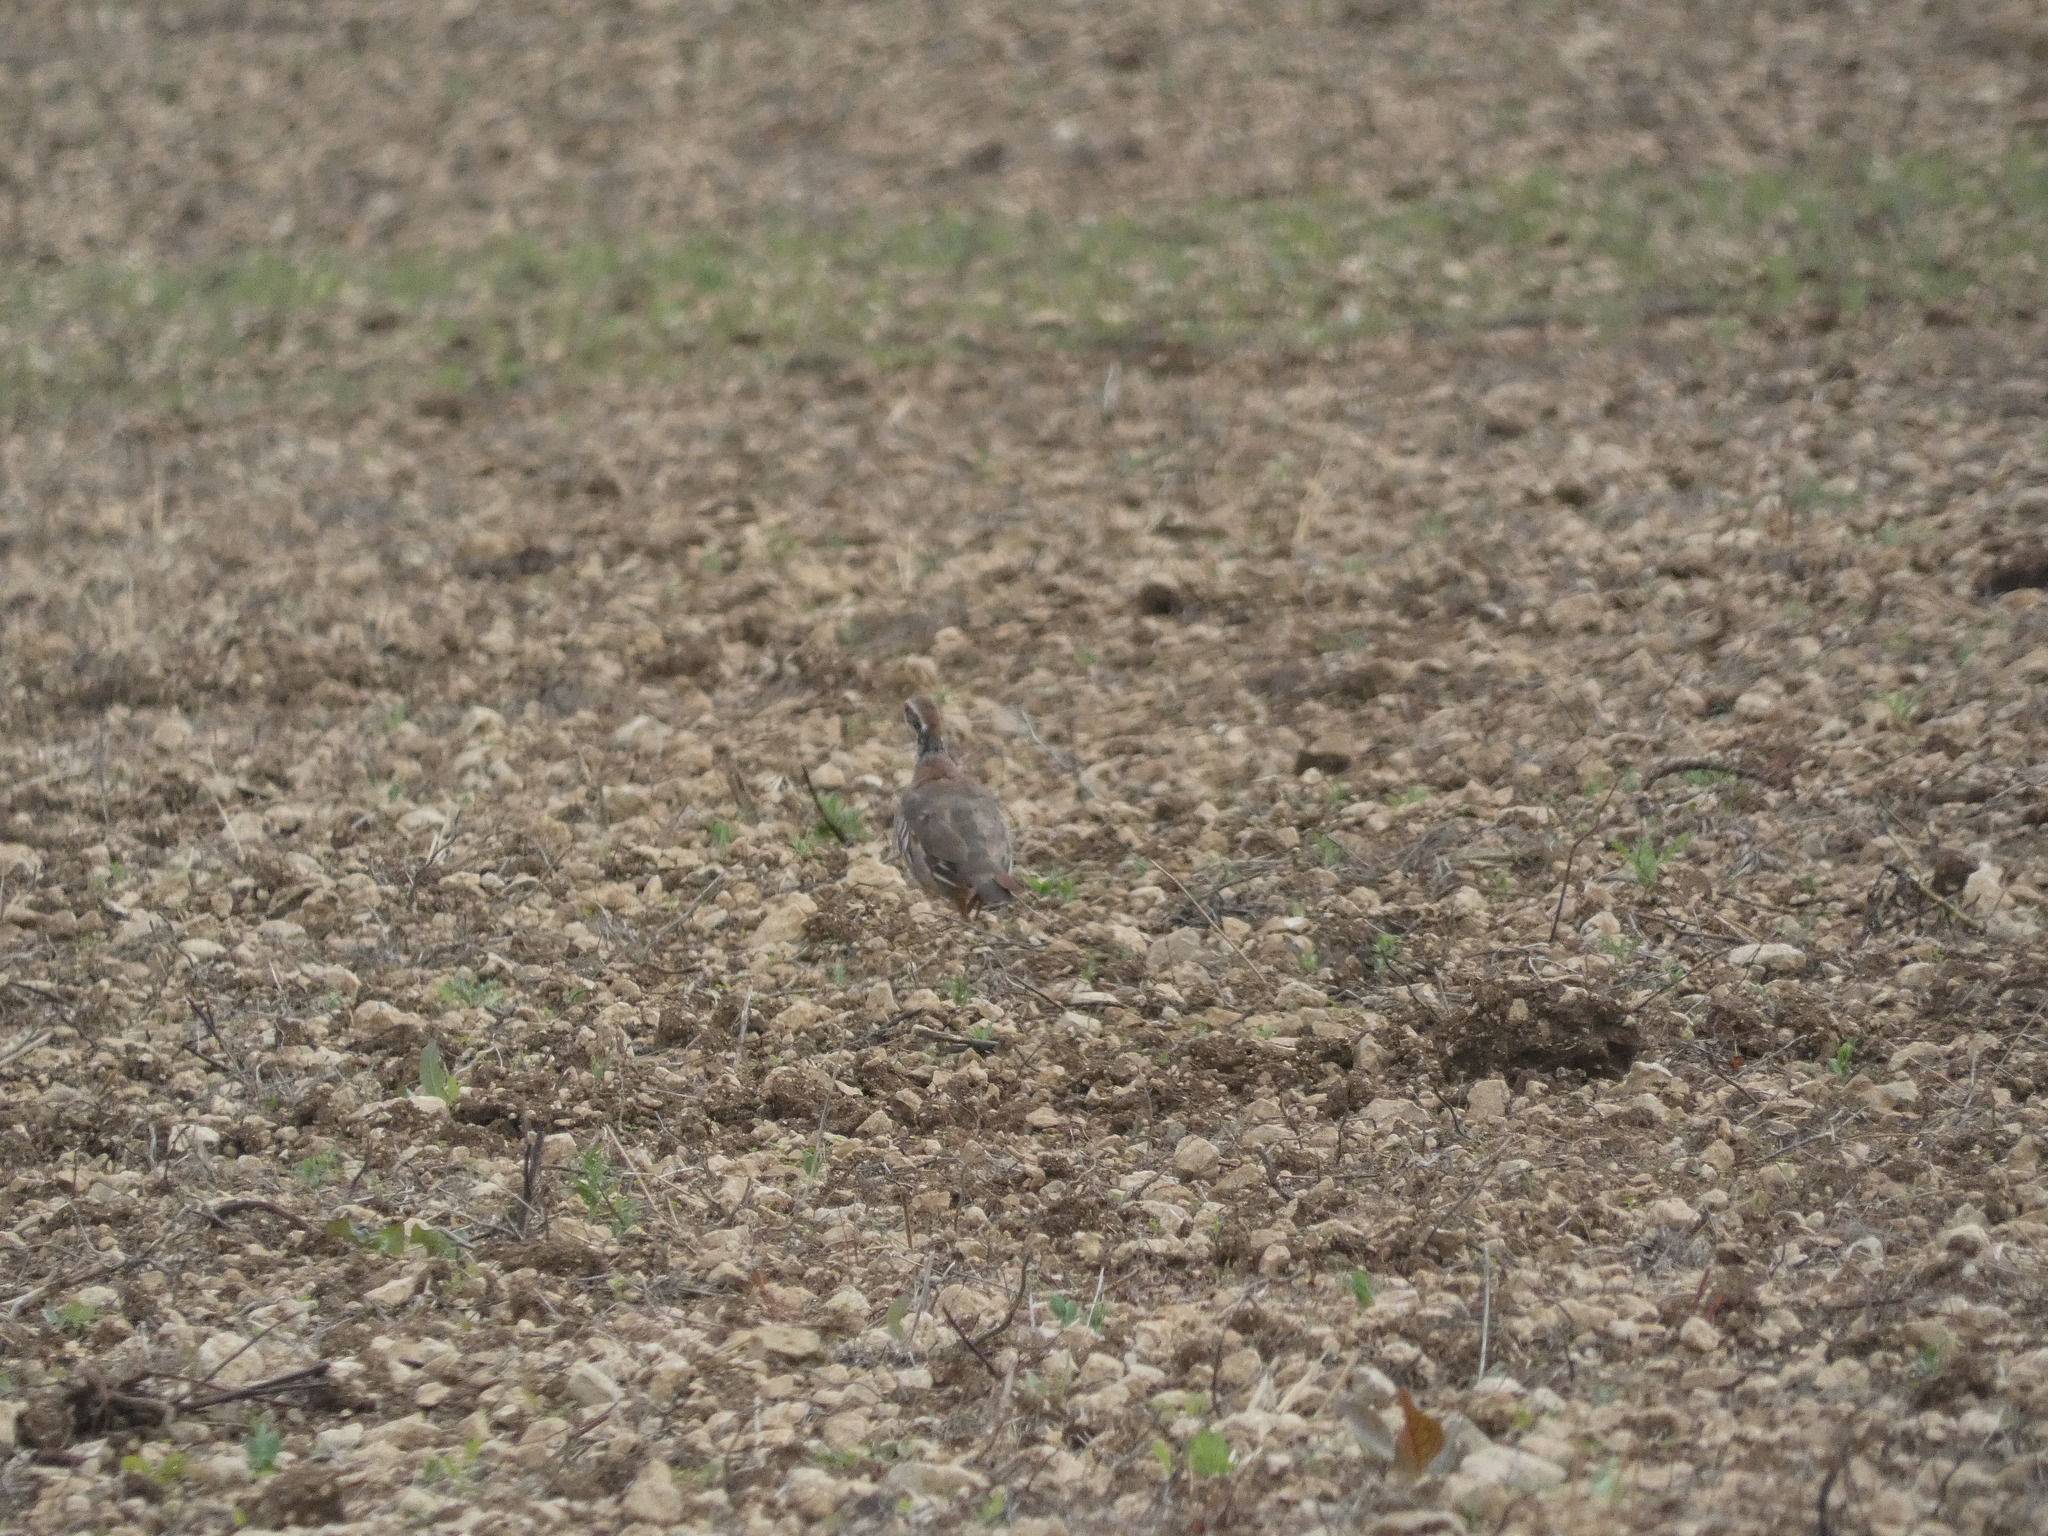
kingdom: Animalia
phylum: Chordata
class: Aves
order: Galliformes
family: Phasianidae
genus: Alectoris
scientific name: Alectoris rufa
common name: Red-legged partridge
